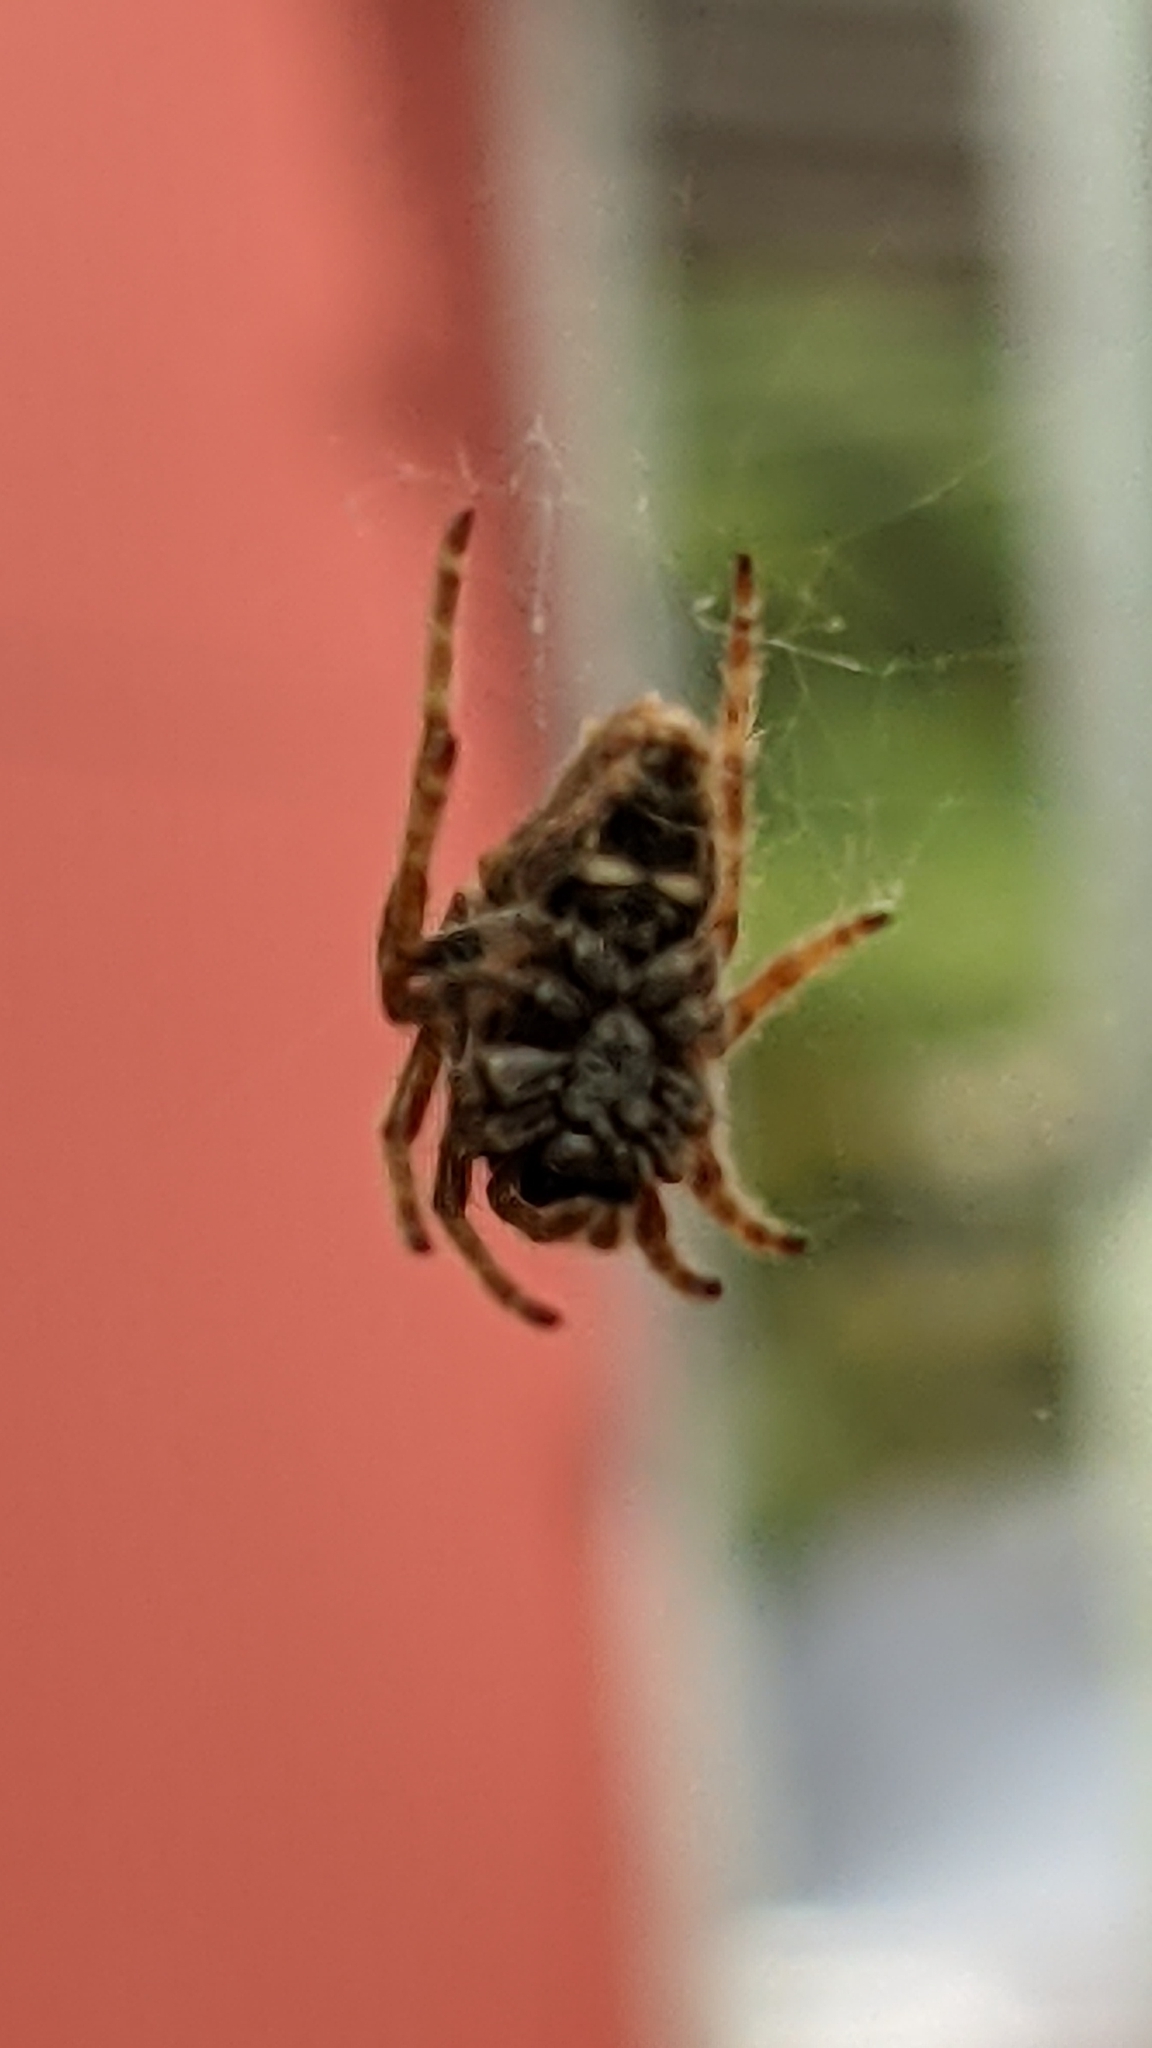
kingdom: Animalia
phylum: Arthropoda
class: Arachnida
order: Araneae
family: Araneidae
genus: Eriophora
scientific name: Eriophora pustulosa
